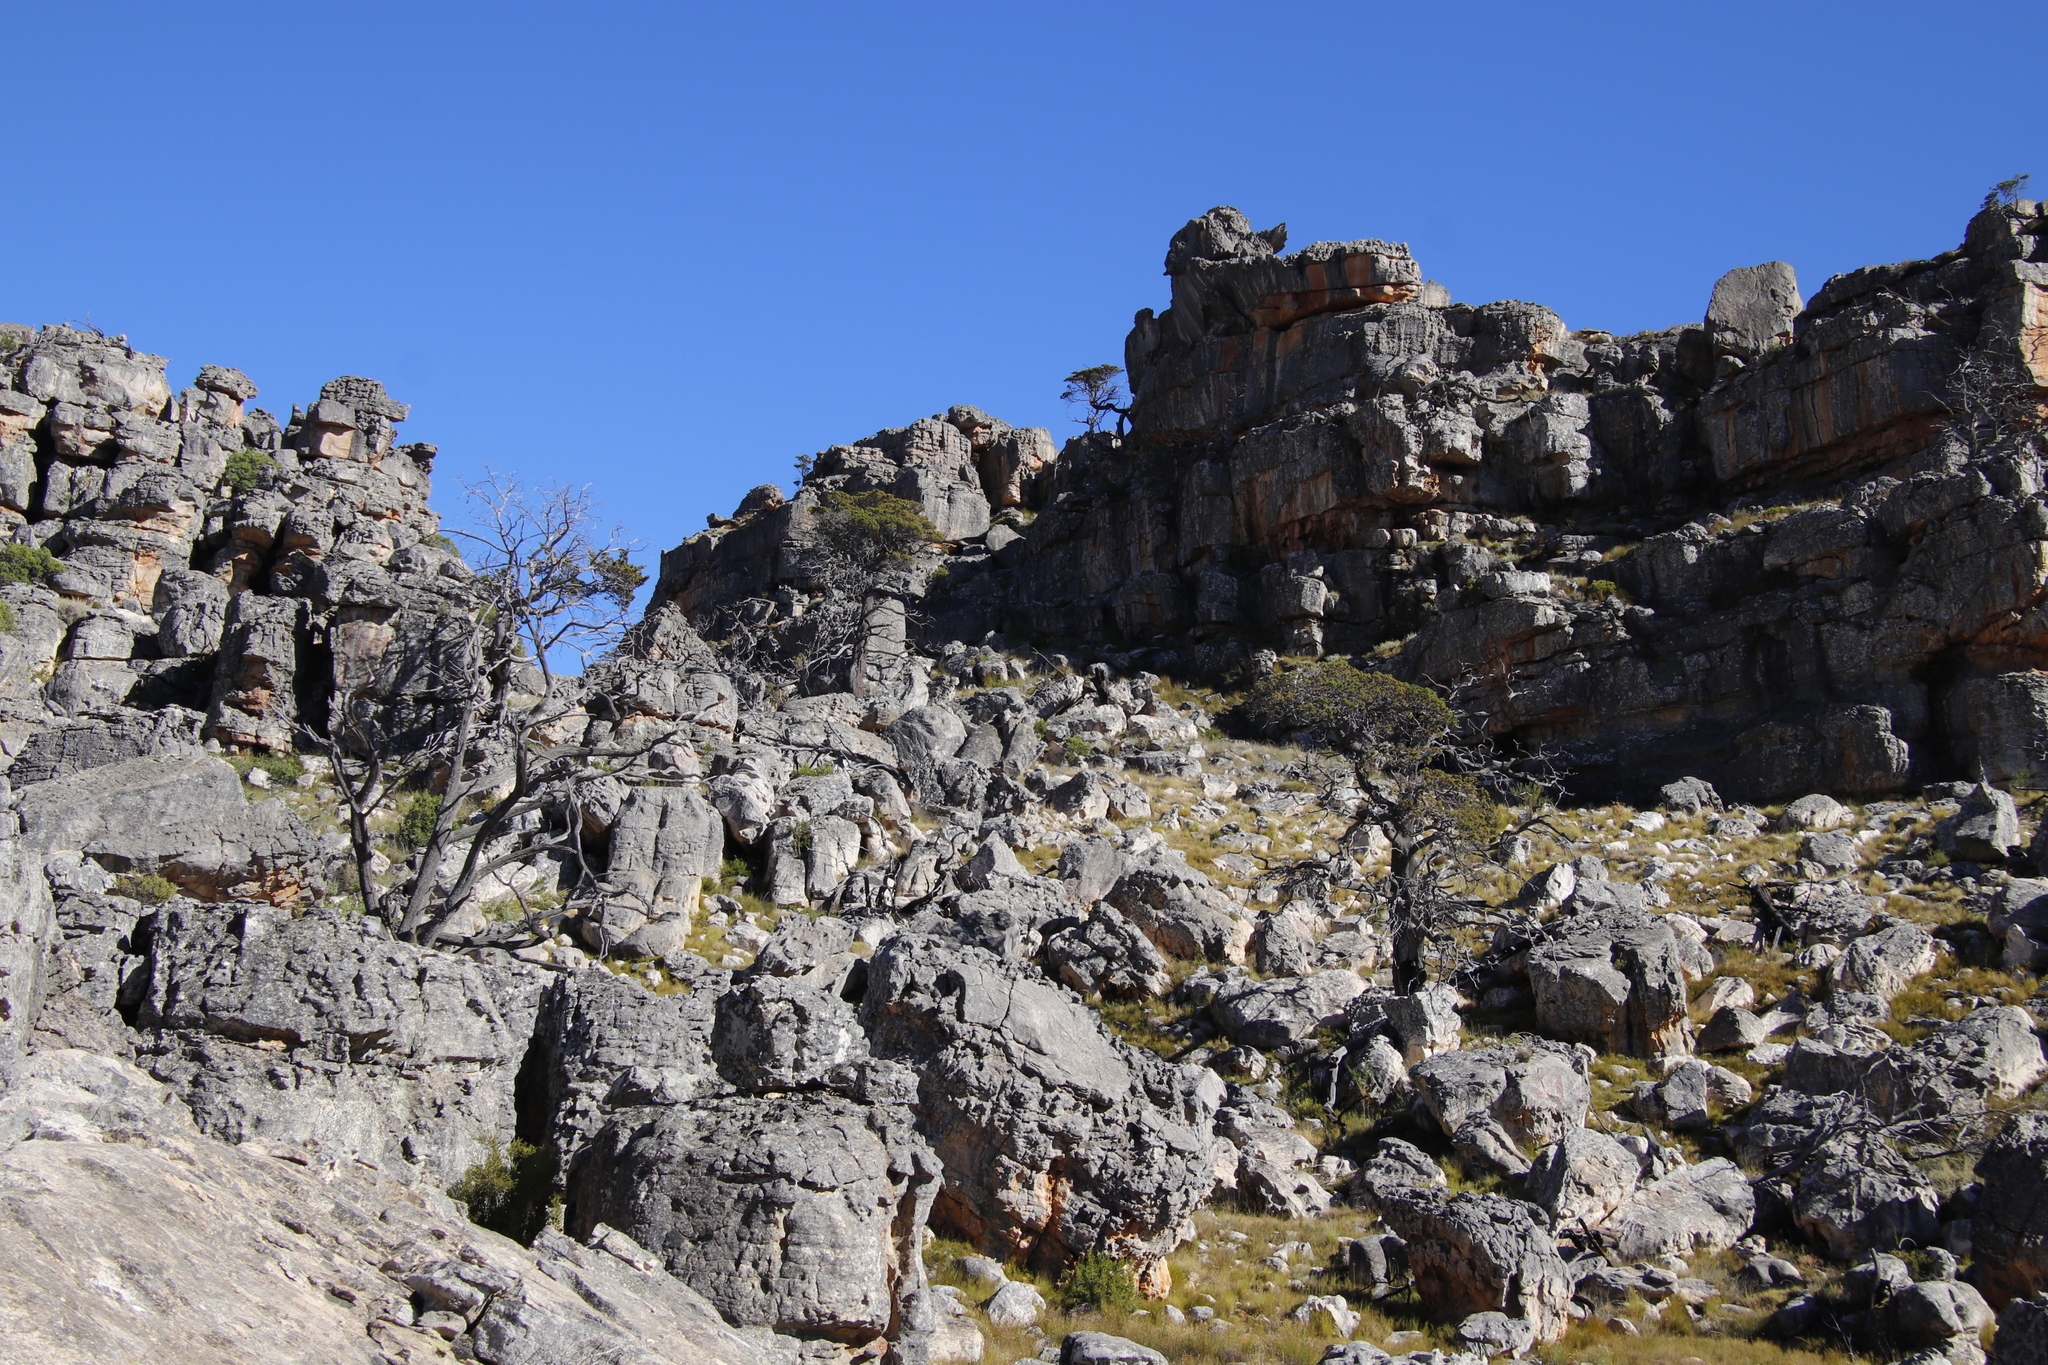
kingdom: Plantae
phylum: Tracheophyta
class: Pinopsida
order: Pinales
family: Cupressaceae
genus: Widdringtonia
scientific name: Widdringtonia nodiflora
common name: Cape cypress
